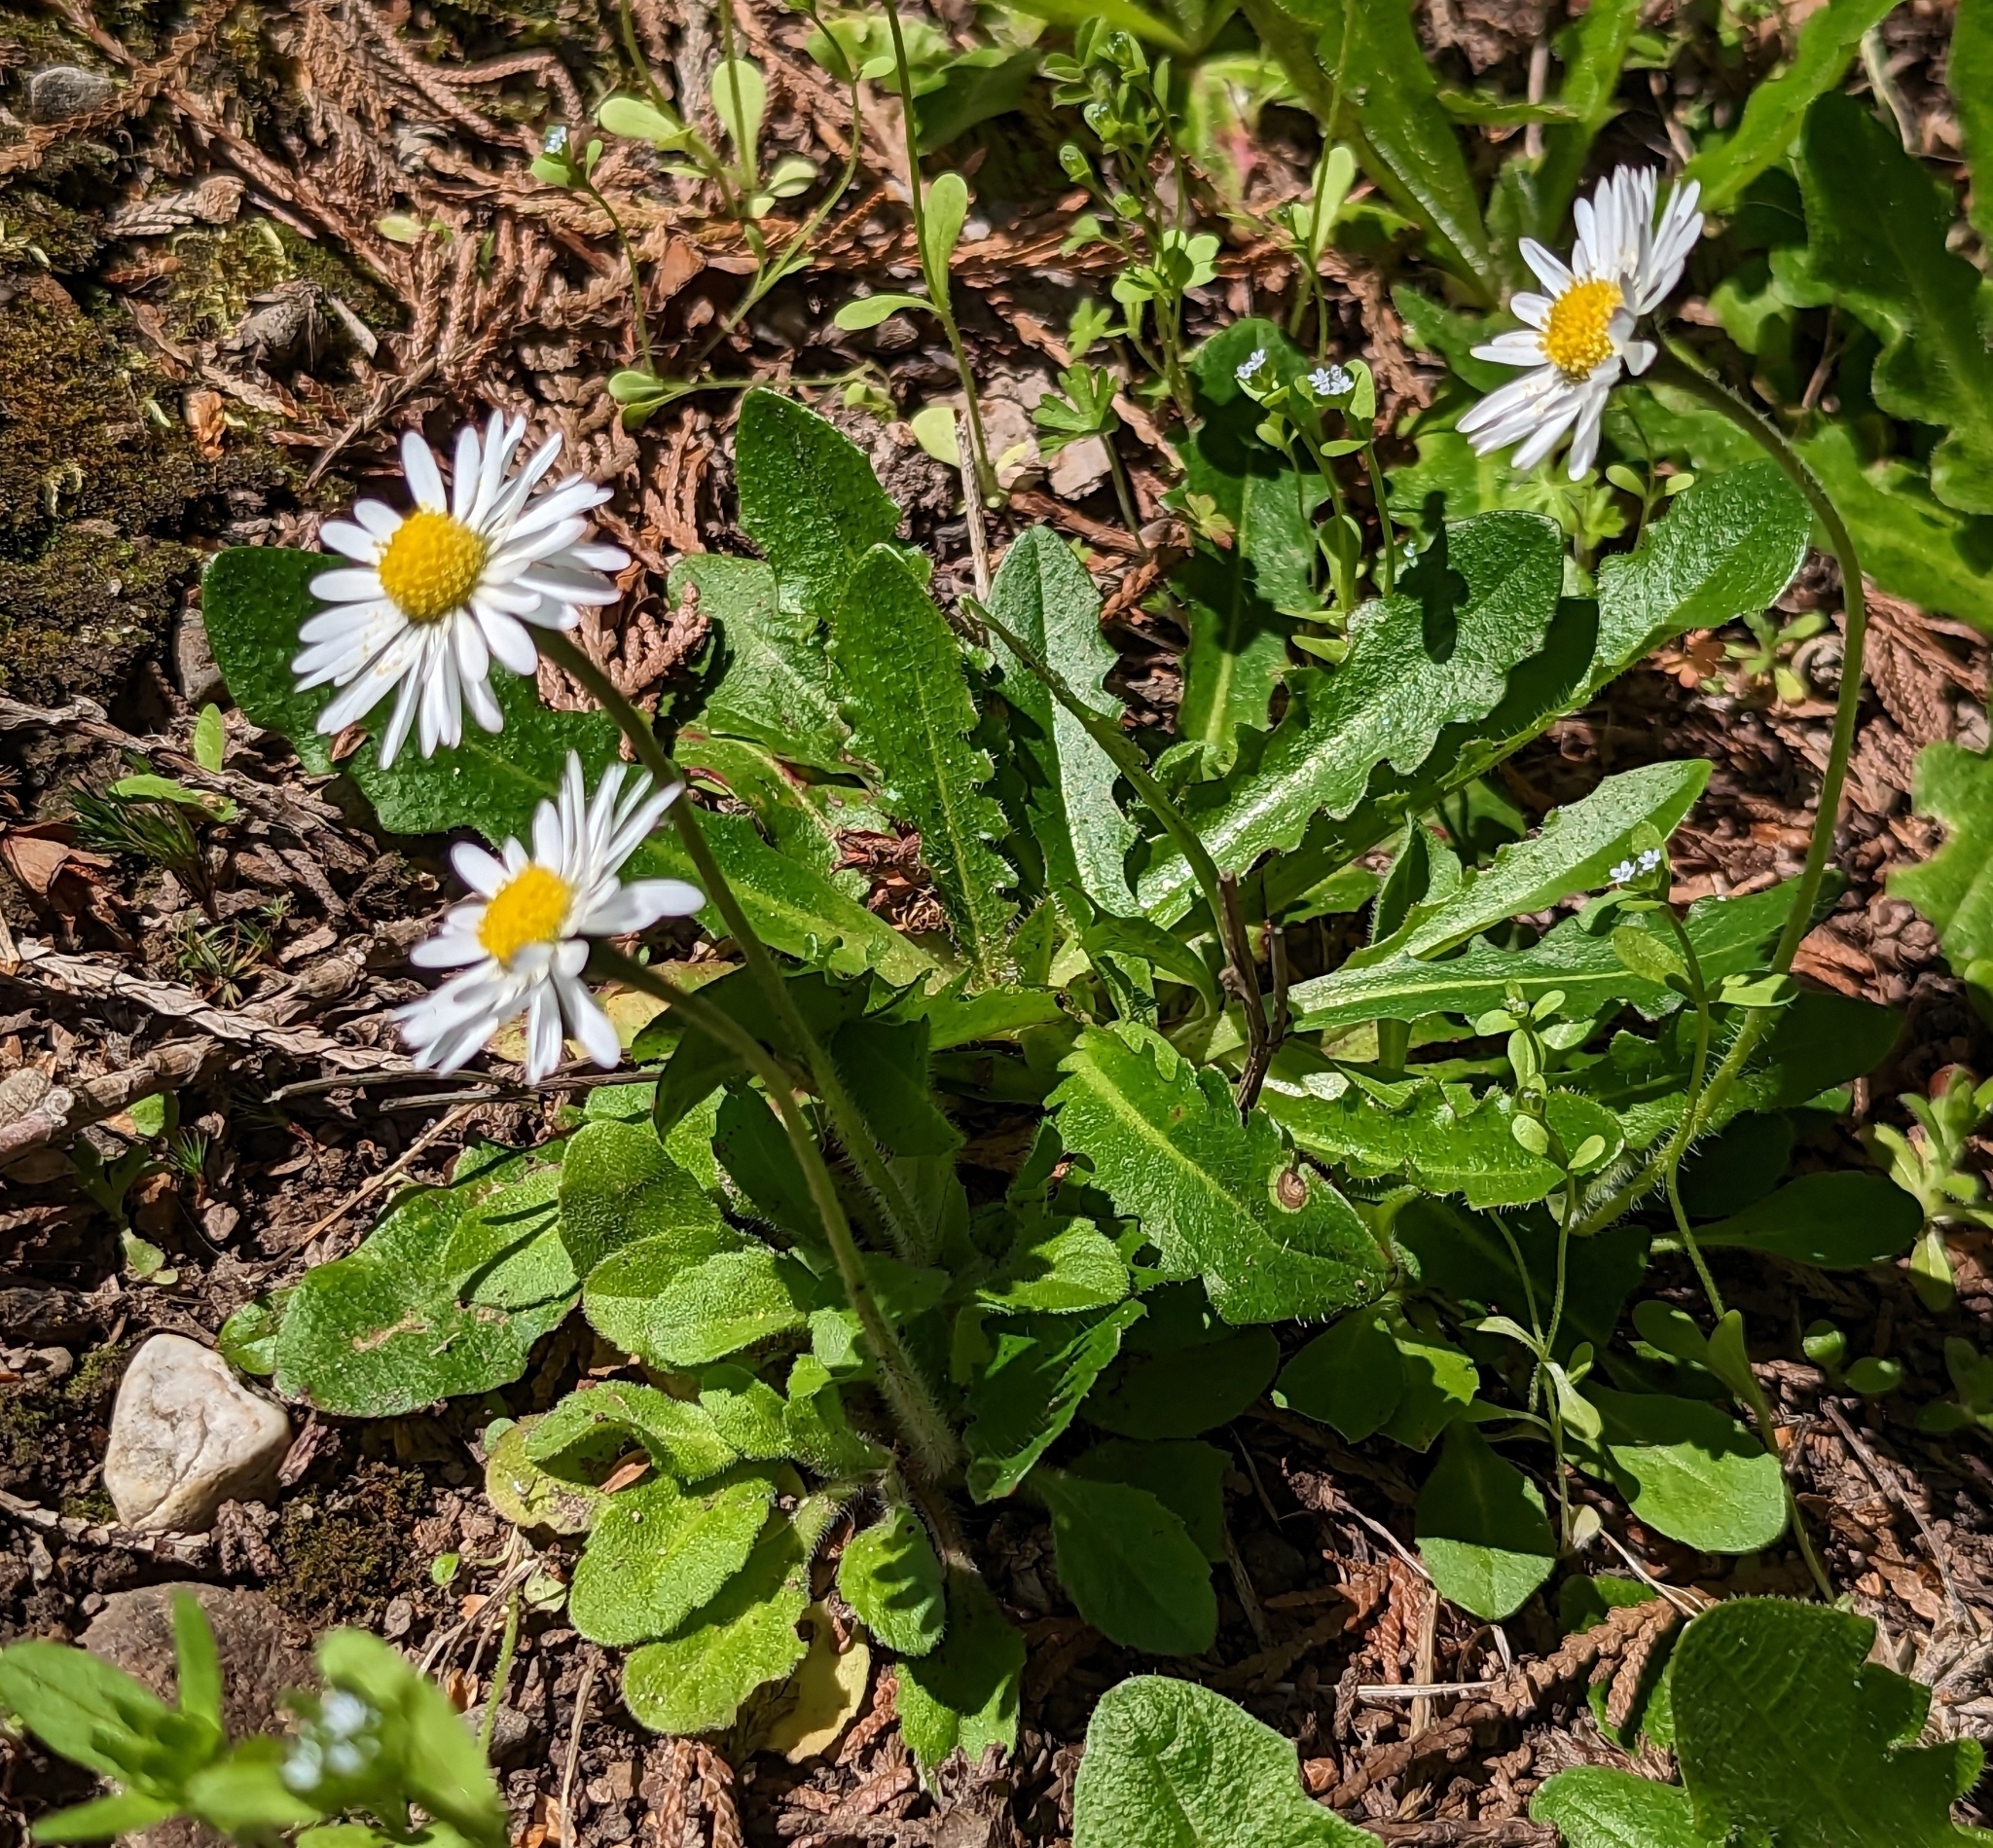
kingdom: Plantae
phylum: Tracheophyta
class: Magnoliopsida
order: Asterales
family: Asteraceae
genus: Bellis
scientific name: Bellis perennis
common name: Lawndaisy
